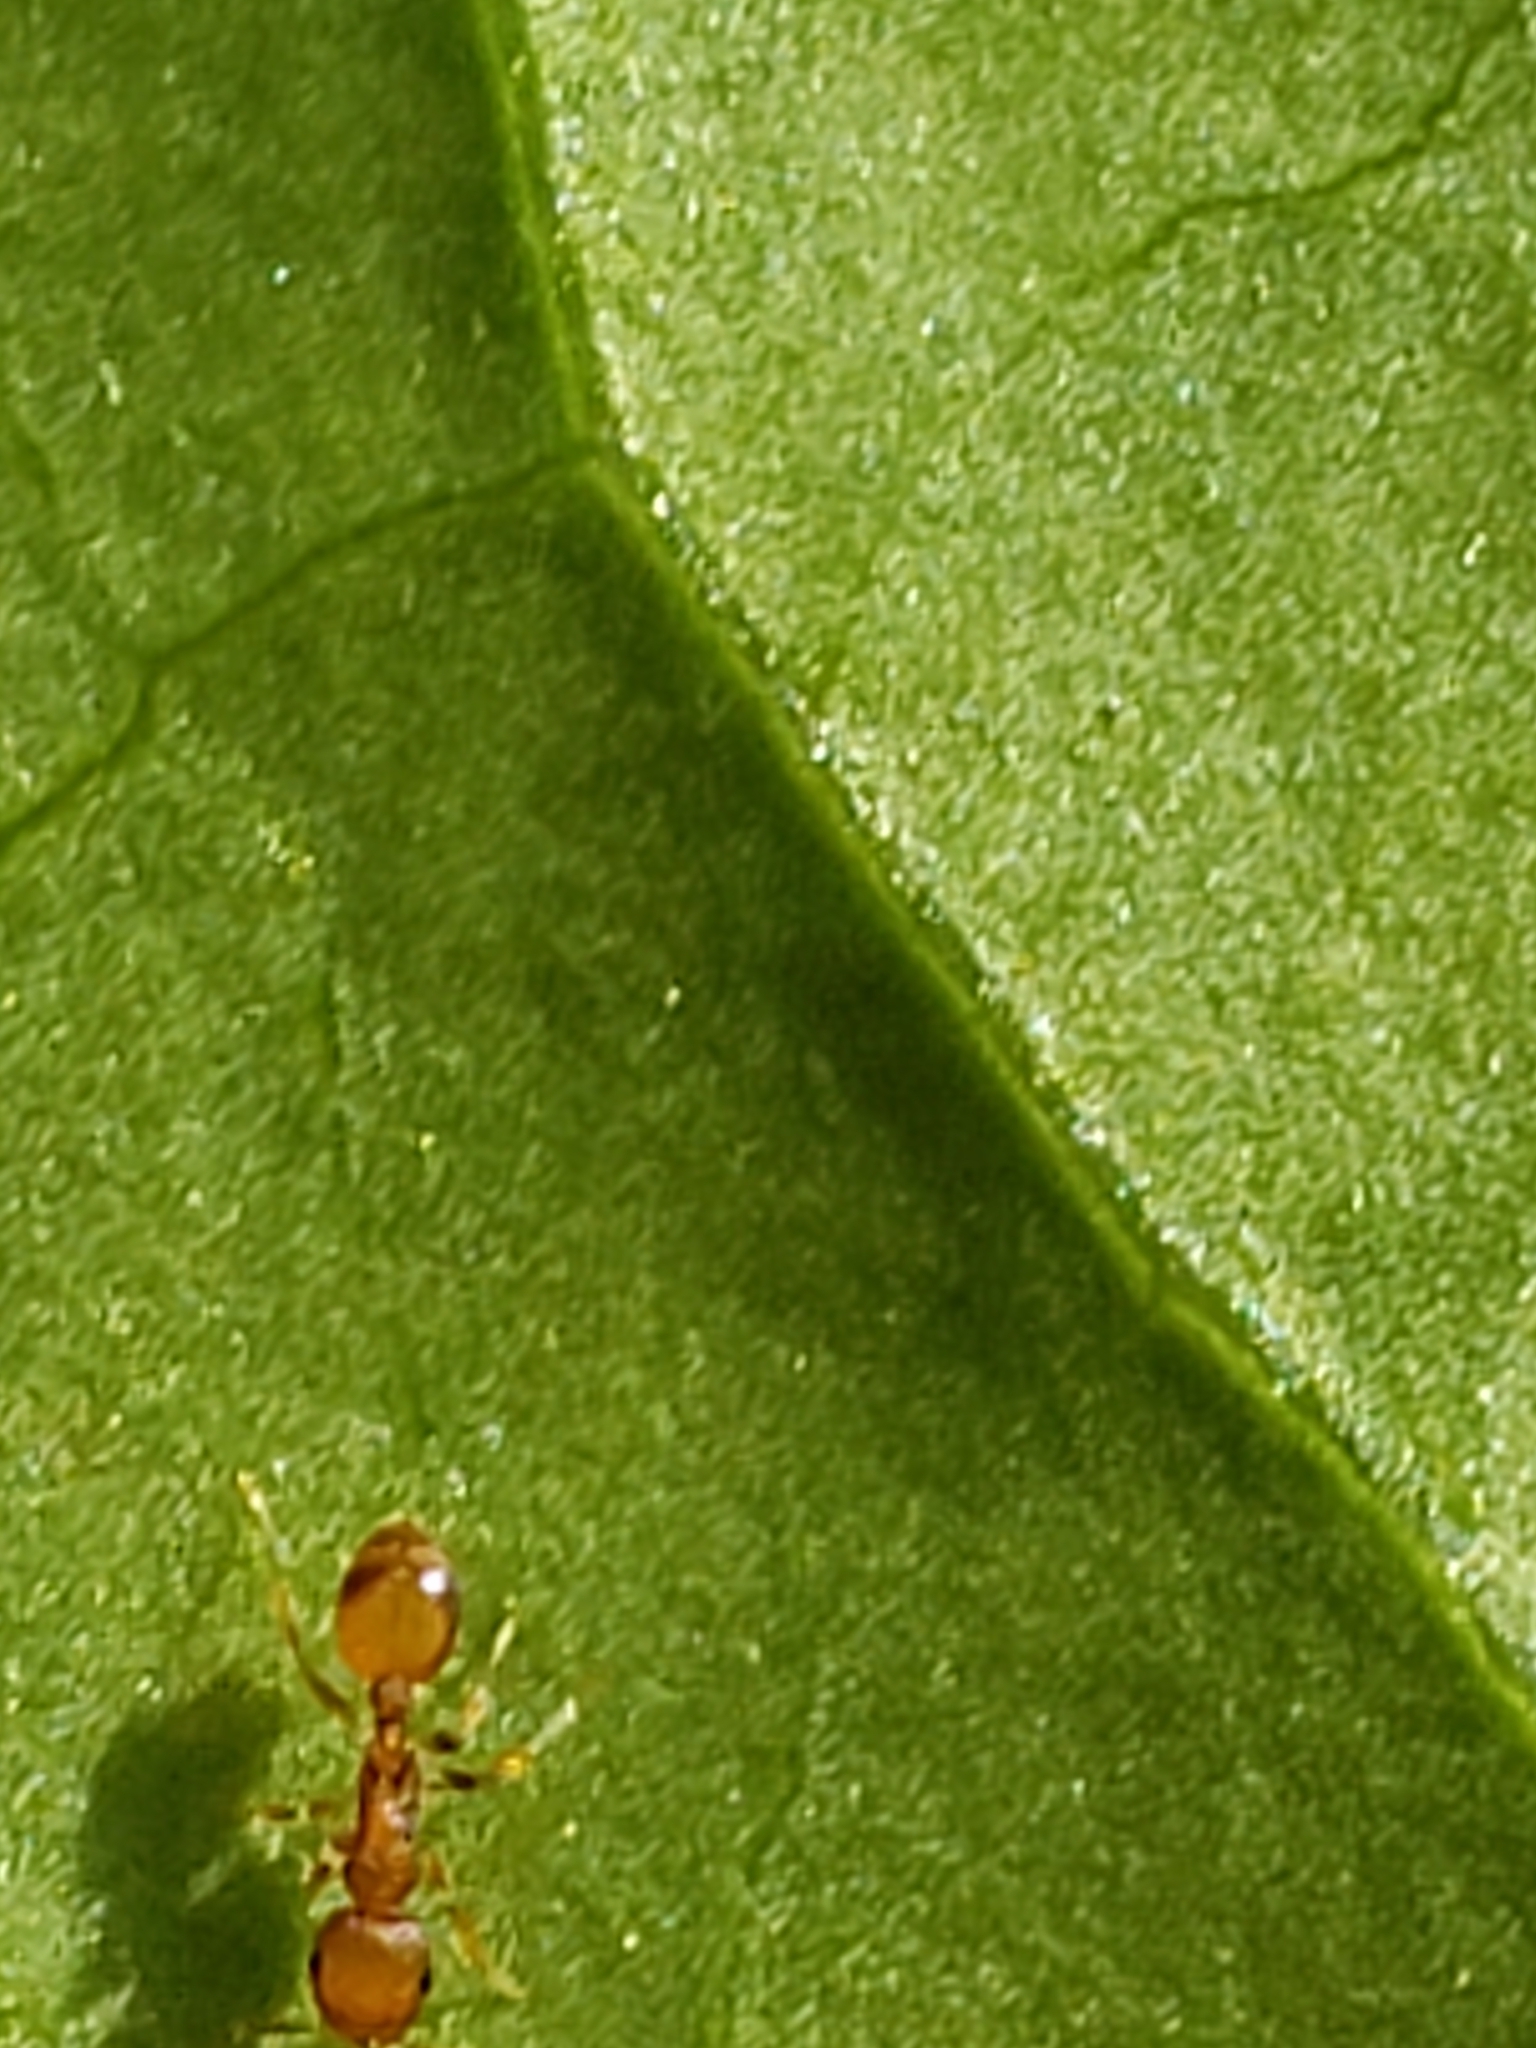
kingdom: Animalia
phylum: Arthropoda
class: Insecta
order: Hymenoptera
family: Formicidae
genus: Temnothorax
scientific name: Temnothorax curvispinosus
